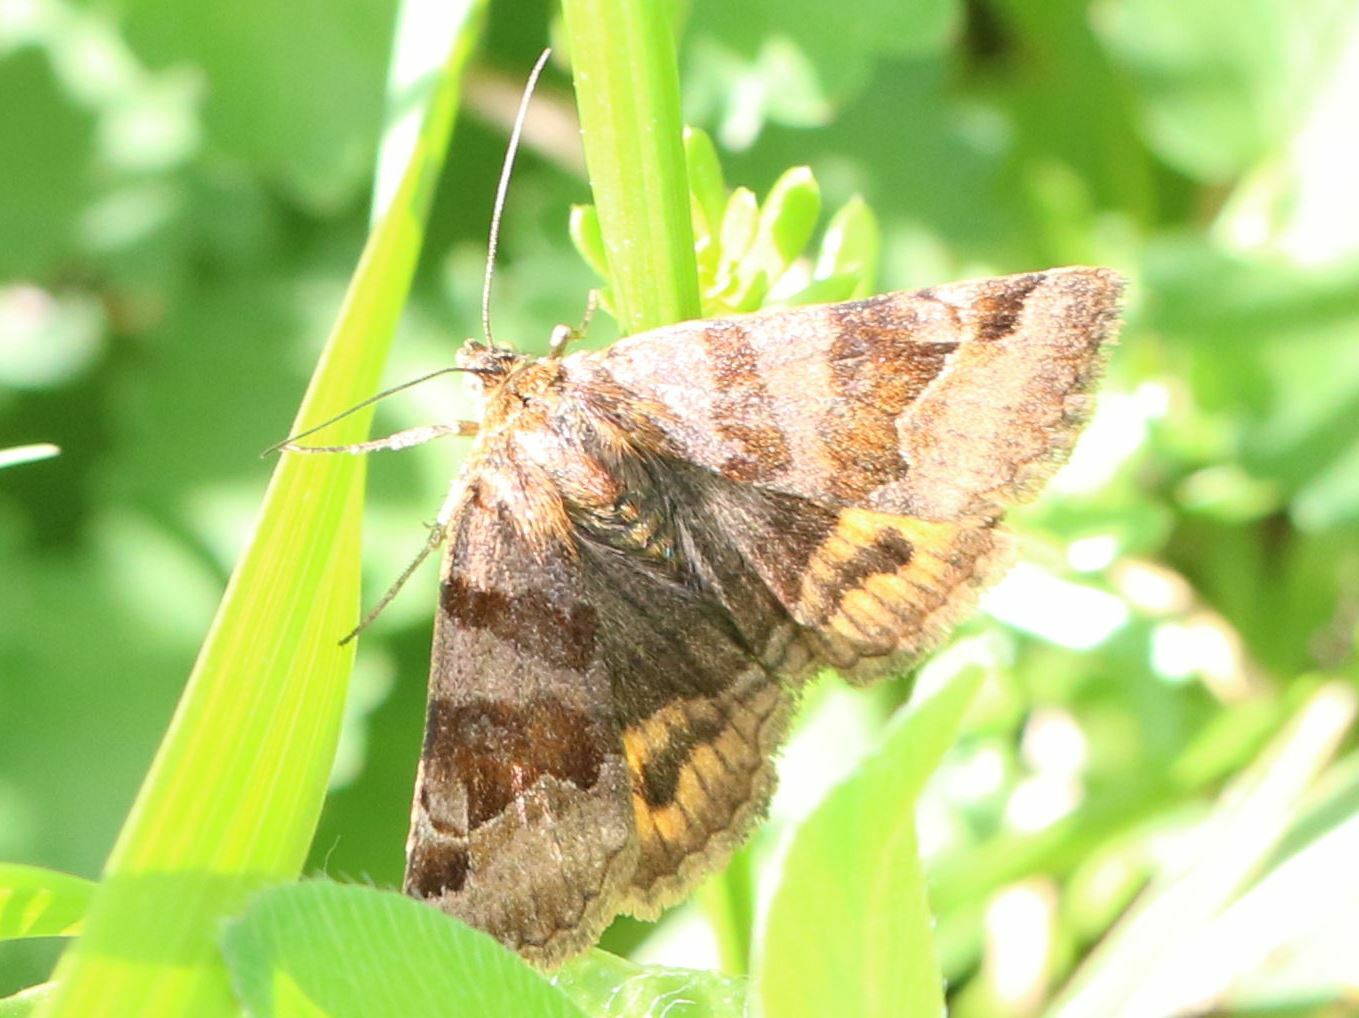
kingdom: Animalia
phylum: Arthropoda
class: Insecta
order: Lepidoptera
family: Erebidae
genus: Euclidia
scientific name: Euclidia glyphica
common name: Burnet companion
